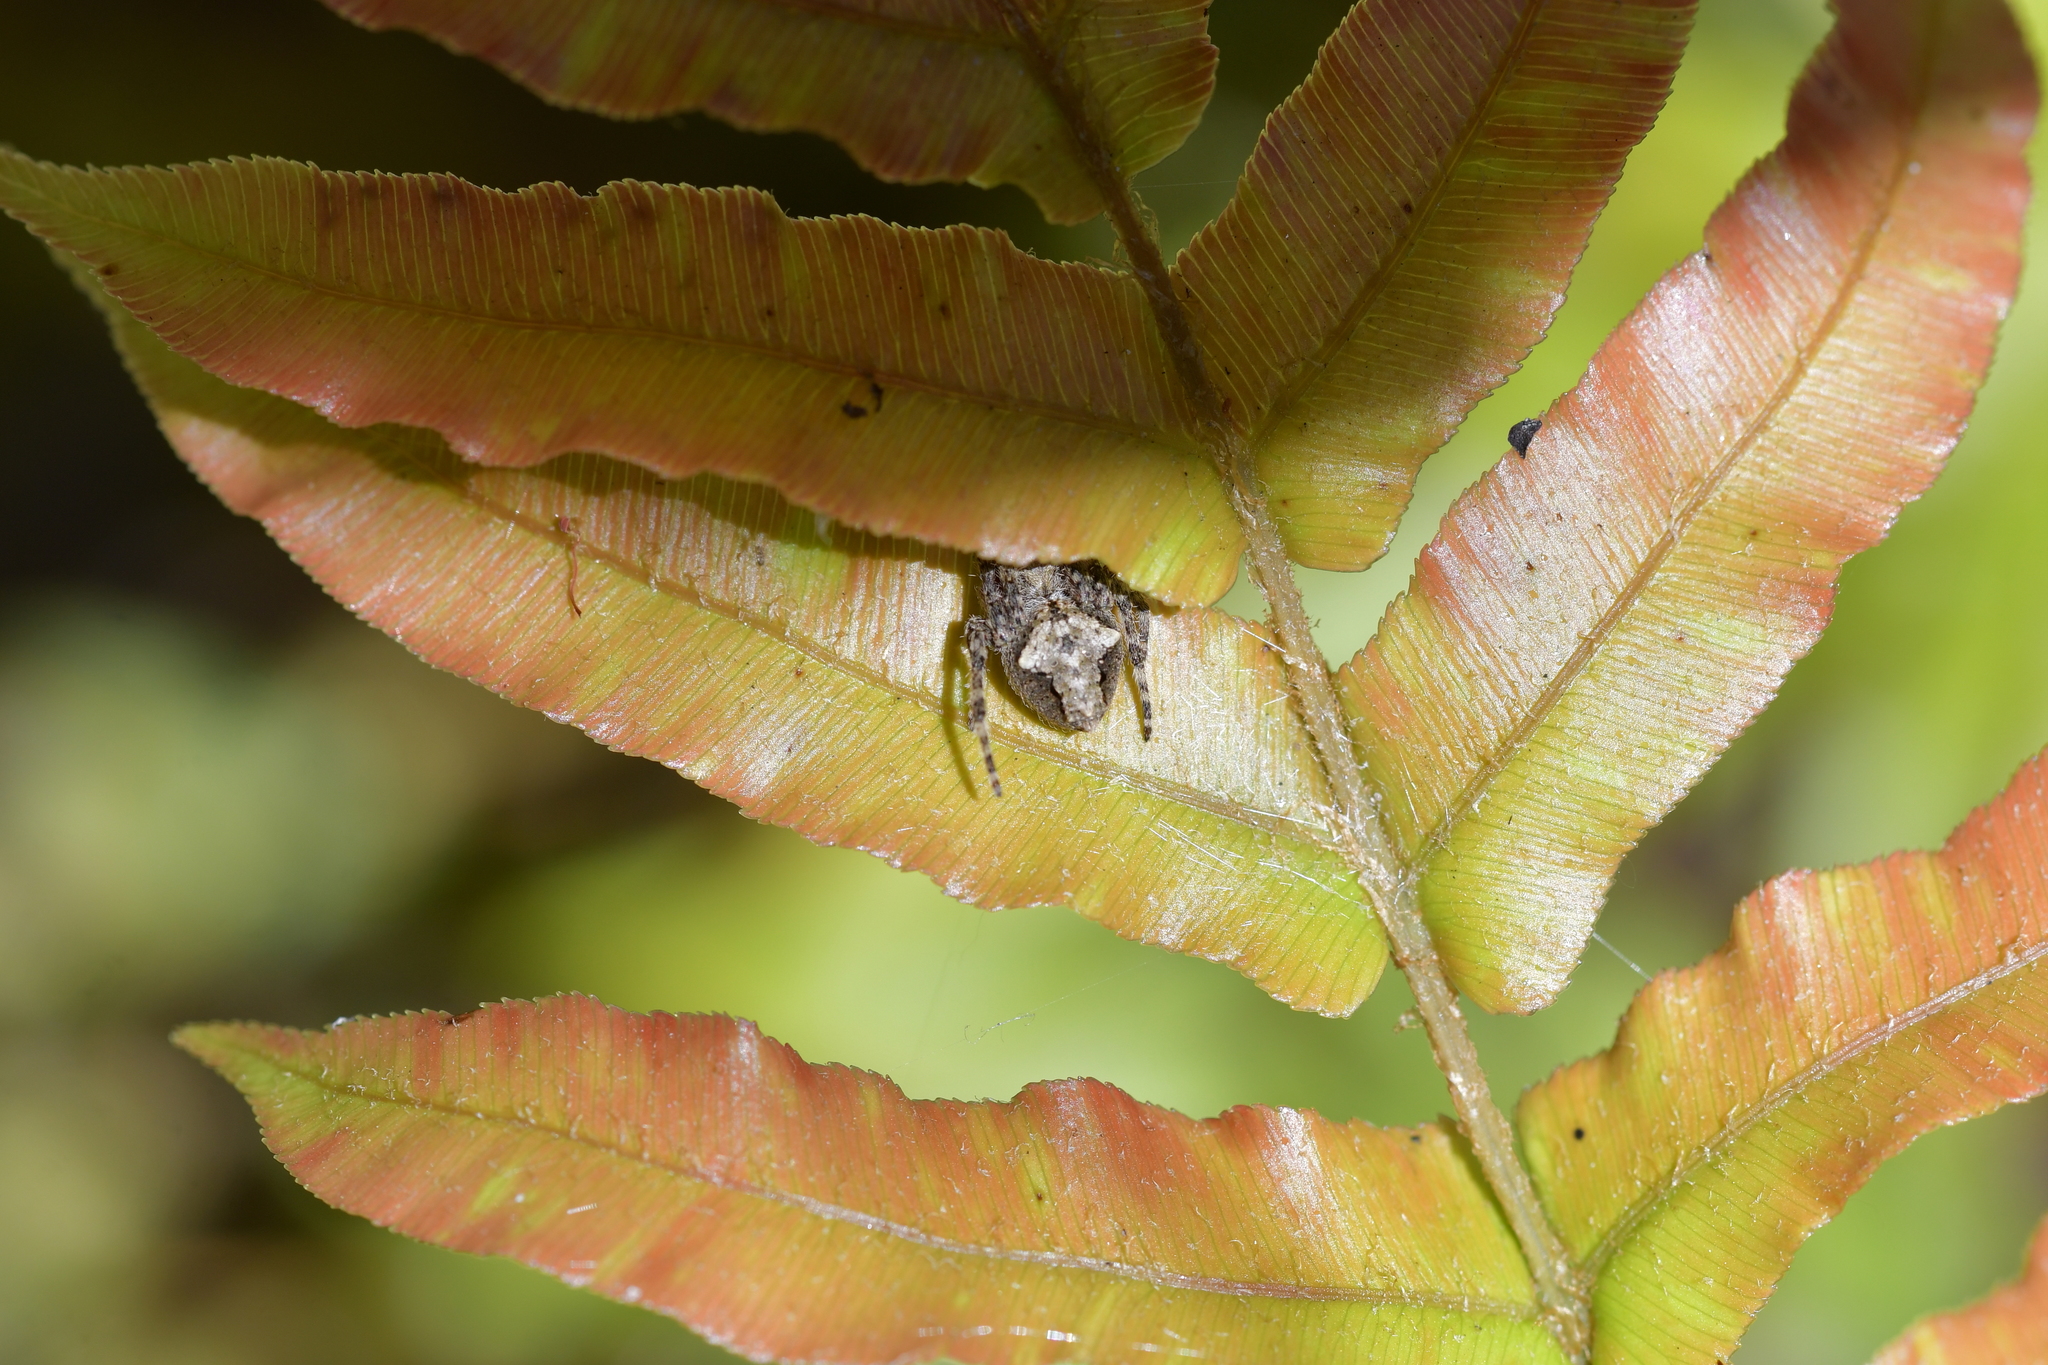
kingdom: Animalia
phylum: Arthropoda
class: Arachnida
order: Araneae
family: Araneidae
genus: Eriophora
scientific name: Eriophora pustulosa
